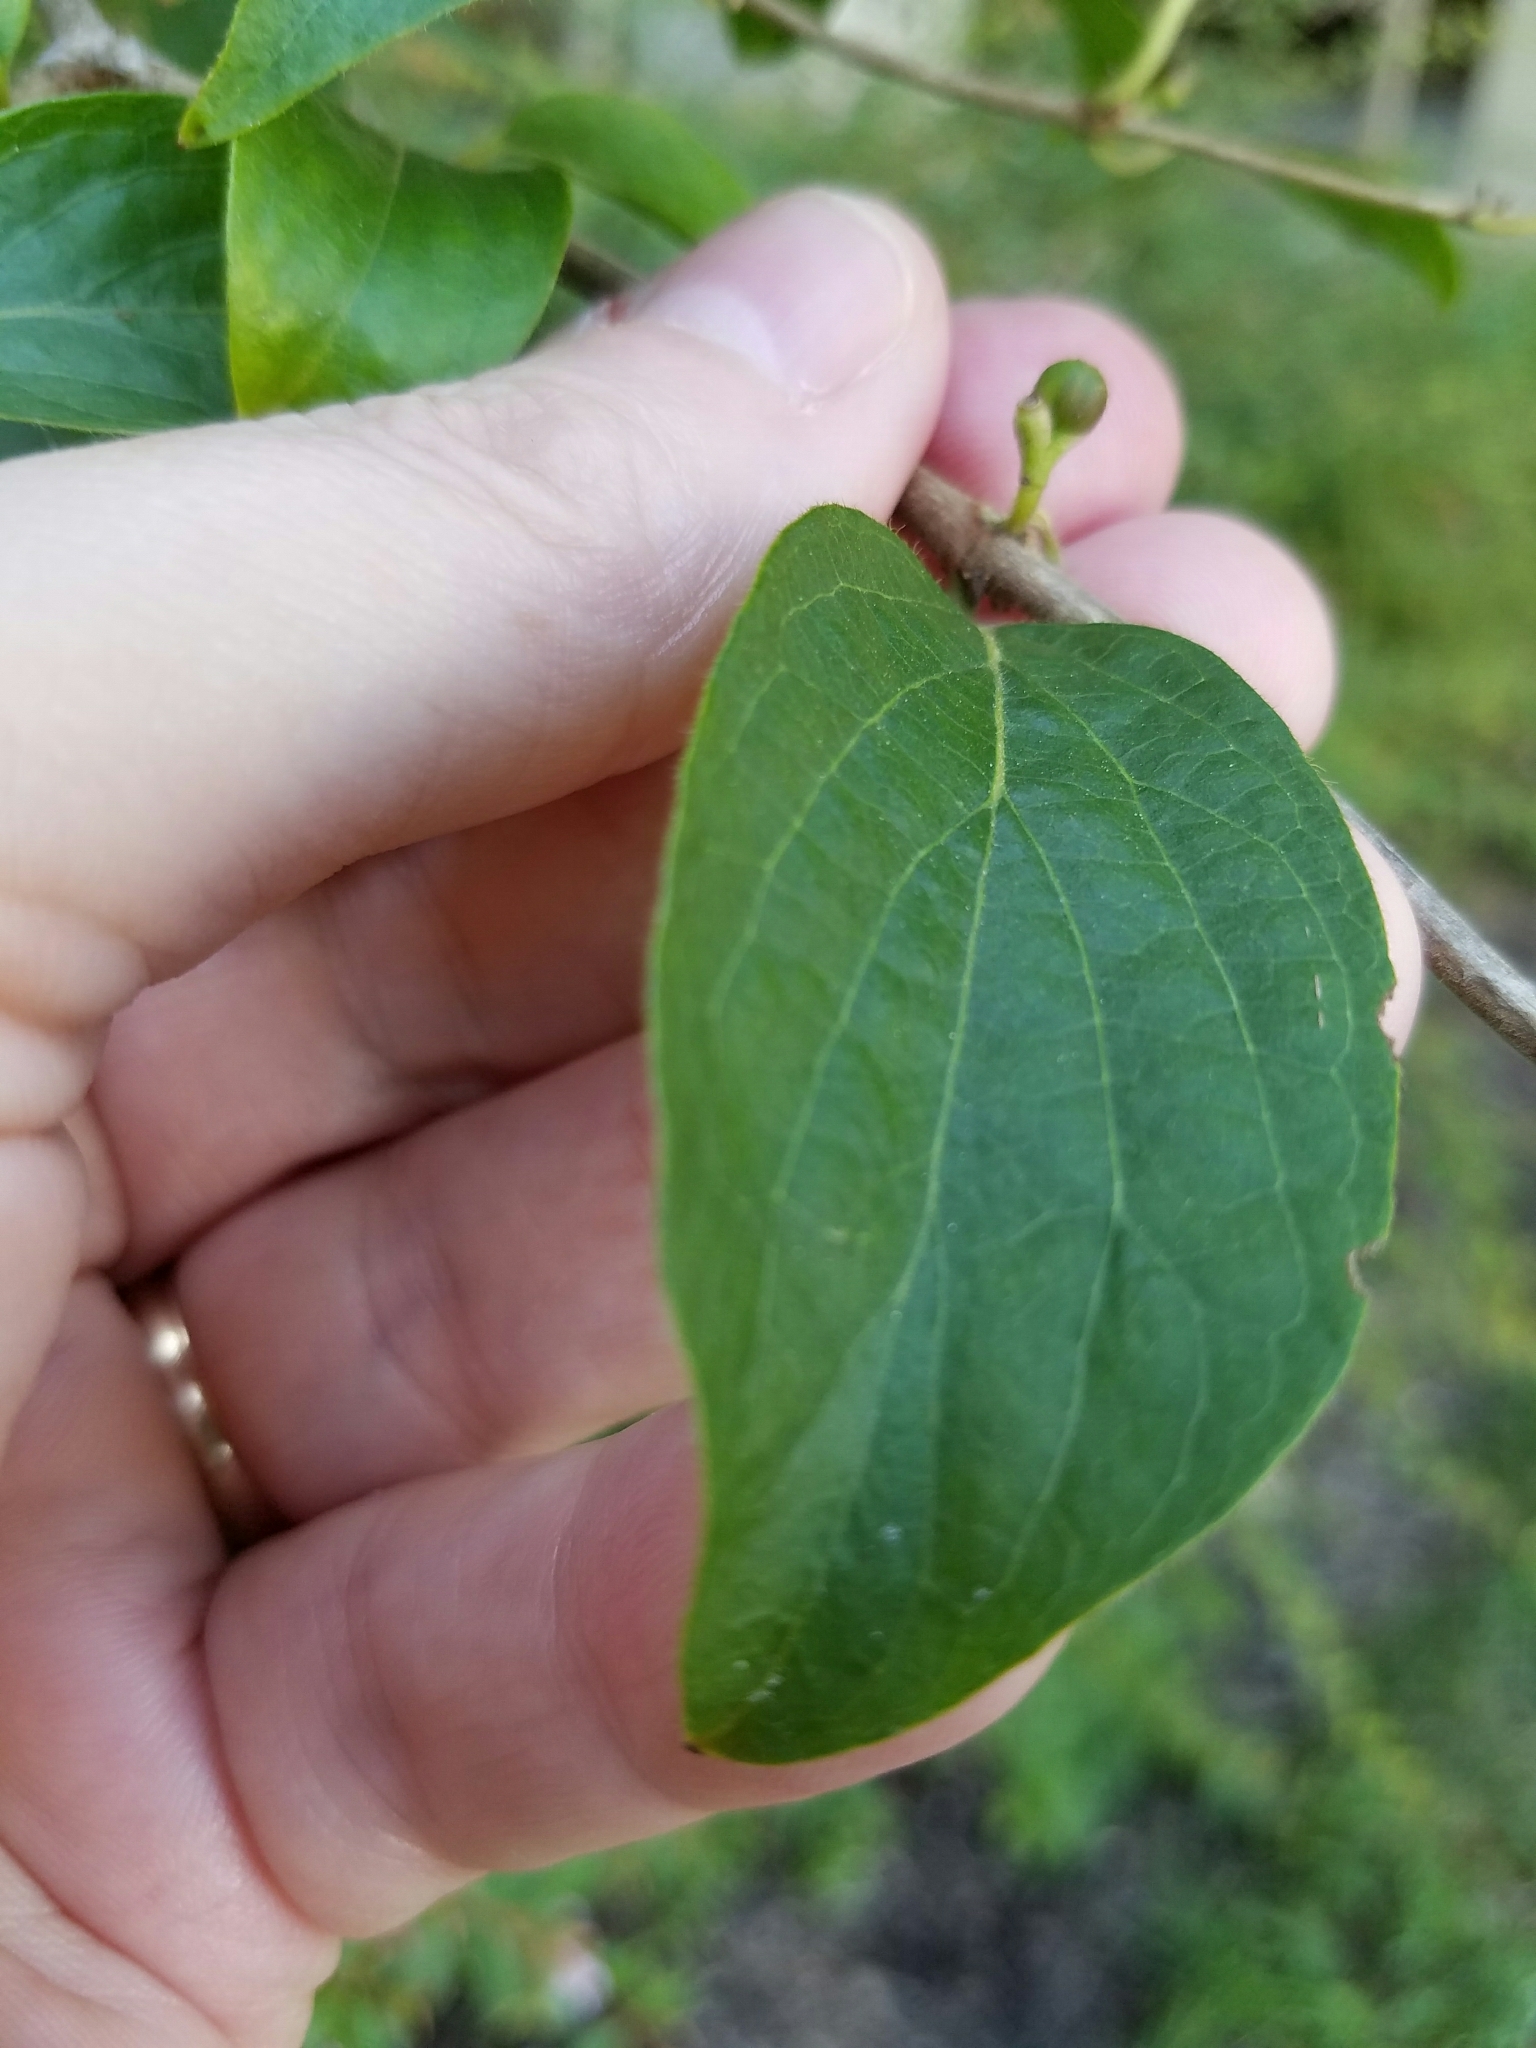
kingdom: Plantae
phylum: Tracheophyta
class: Magnoliopsida
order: Dipsacales
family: Caprifoliaceae
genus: Lonicera
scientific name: Lonicera maackii
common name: Amur honeysuckle
